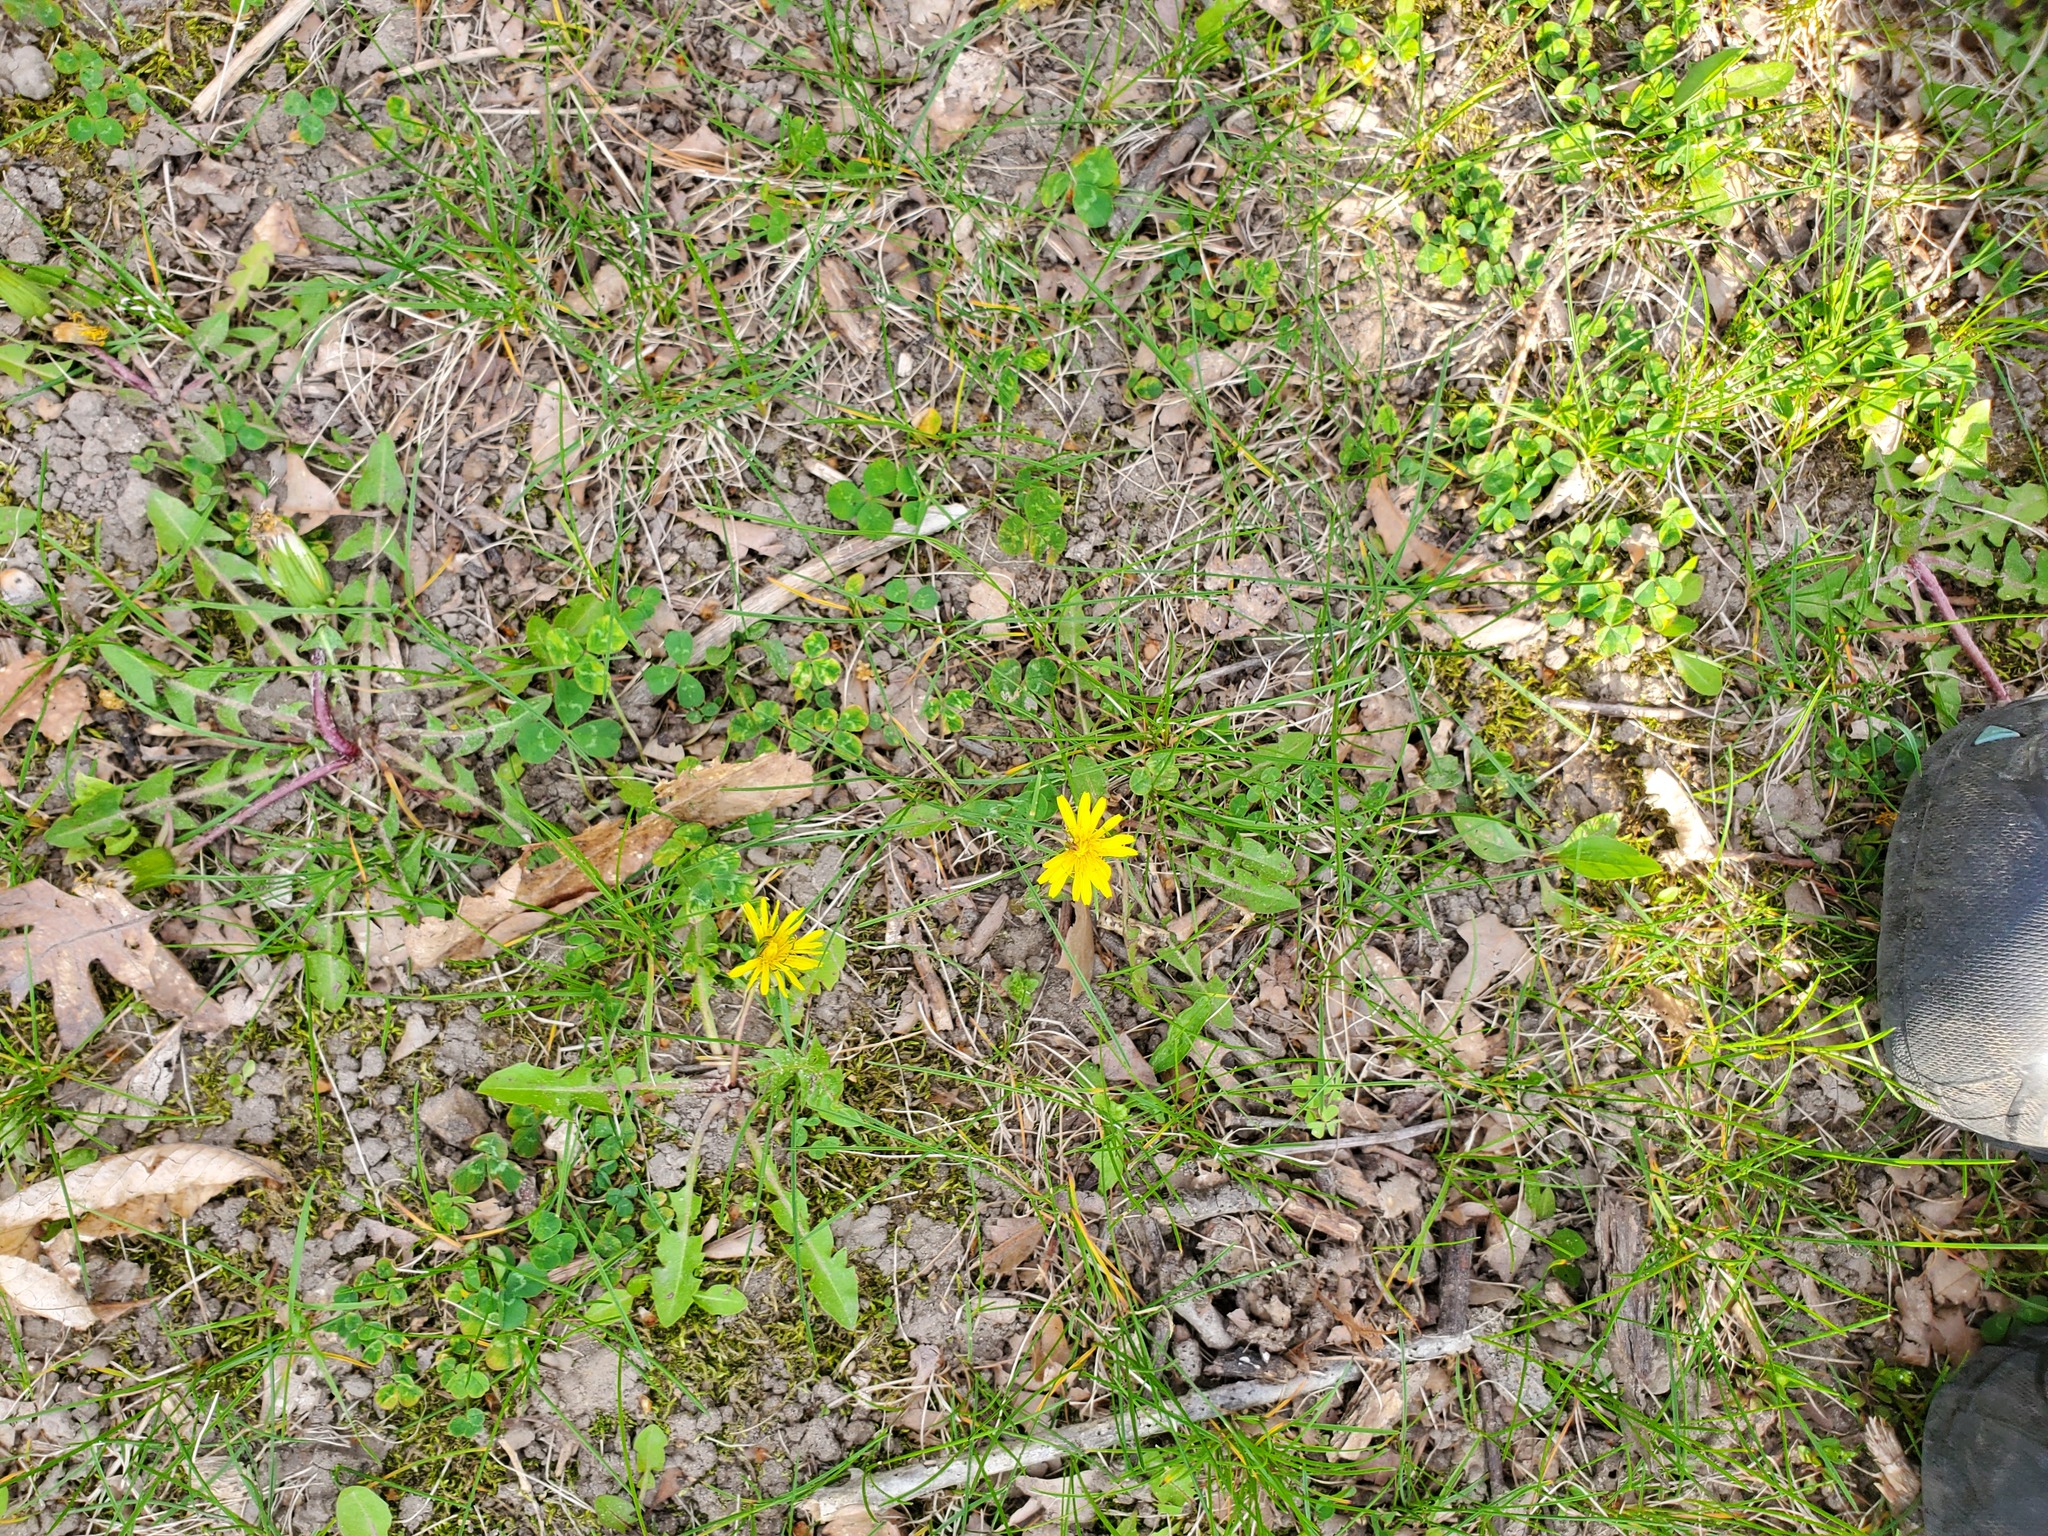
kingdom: Plantae
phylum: Tracheophyta
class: Magnoliopsida
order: Asterales
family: Asteraceae
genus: Taraxacum
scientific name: Taraxacum officinale
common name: Common dandelion
